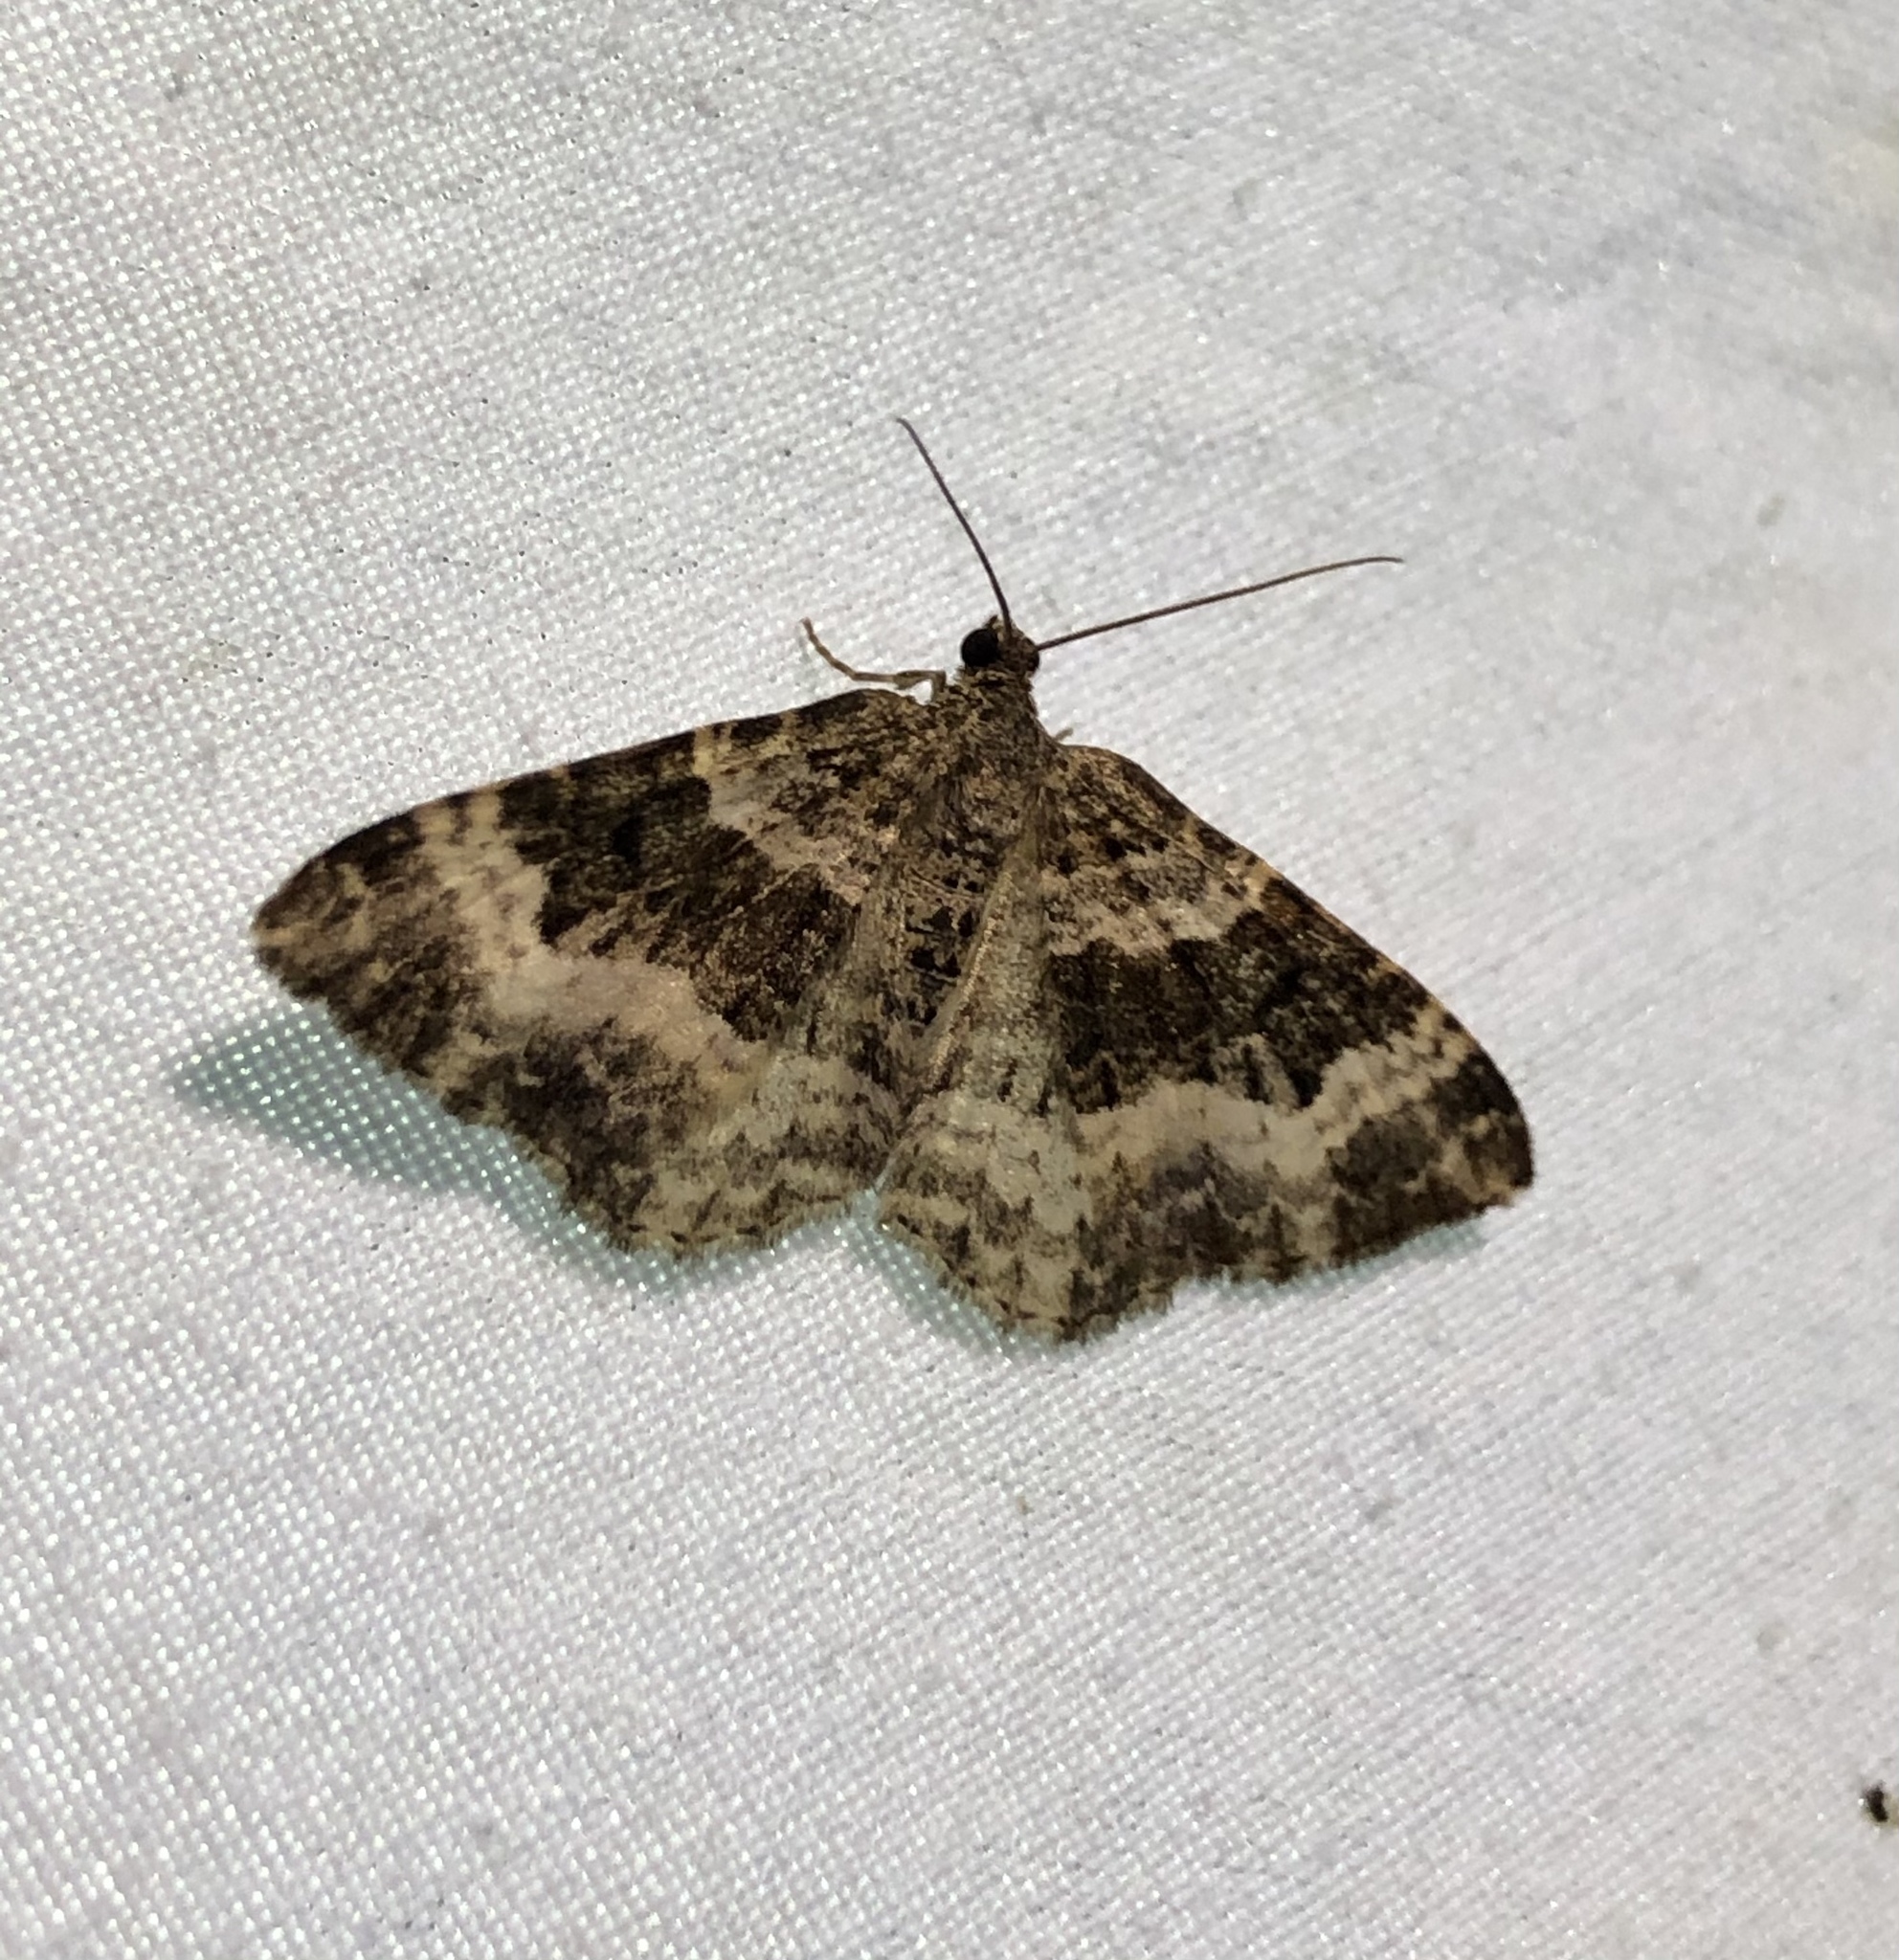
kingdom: Animalia
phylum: Arthropoda
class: Insecta
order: Lepidoptera
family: Geometridae
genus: Epirrhoe
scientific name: Epirrhoe alternata
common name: Common carpet
